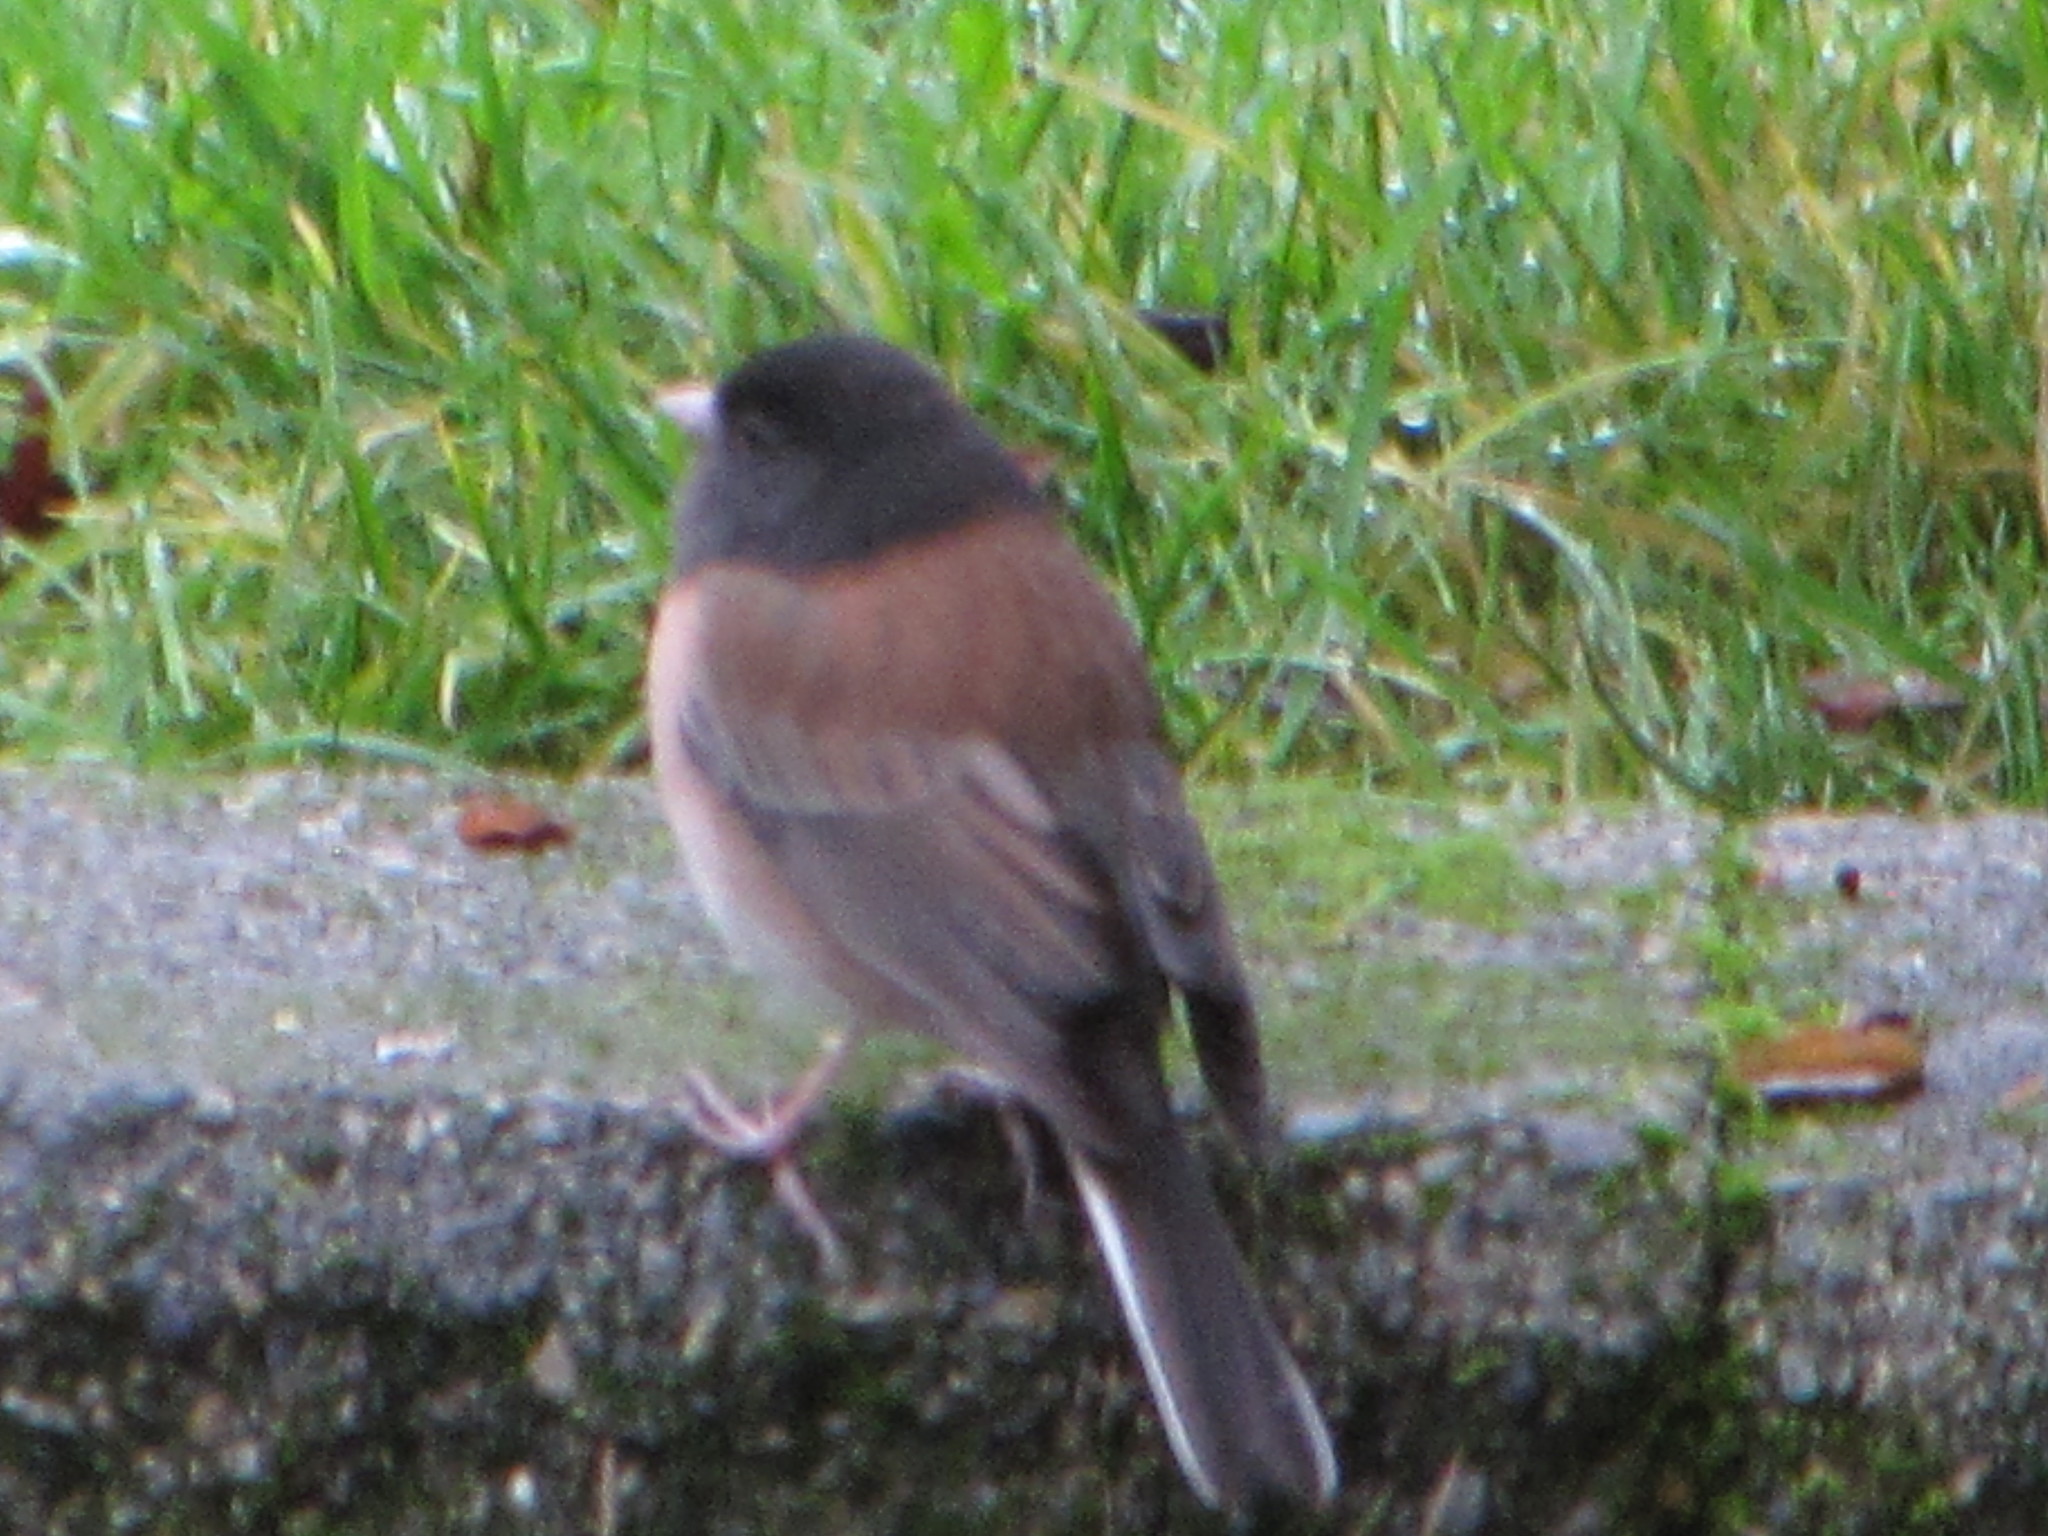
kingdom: Animalia
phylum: Chordata
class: Aves
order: Passeriformes
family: Passerellidae
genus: Junco
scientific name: Junco hyemalis
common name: Dark-eyed junco
